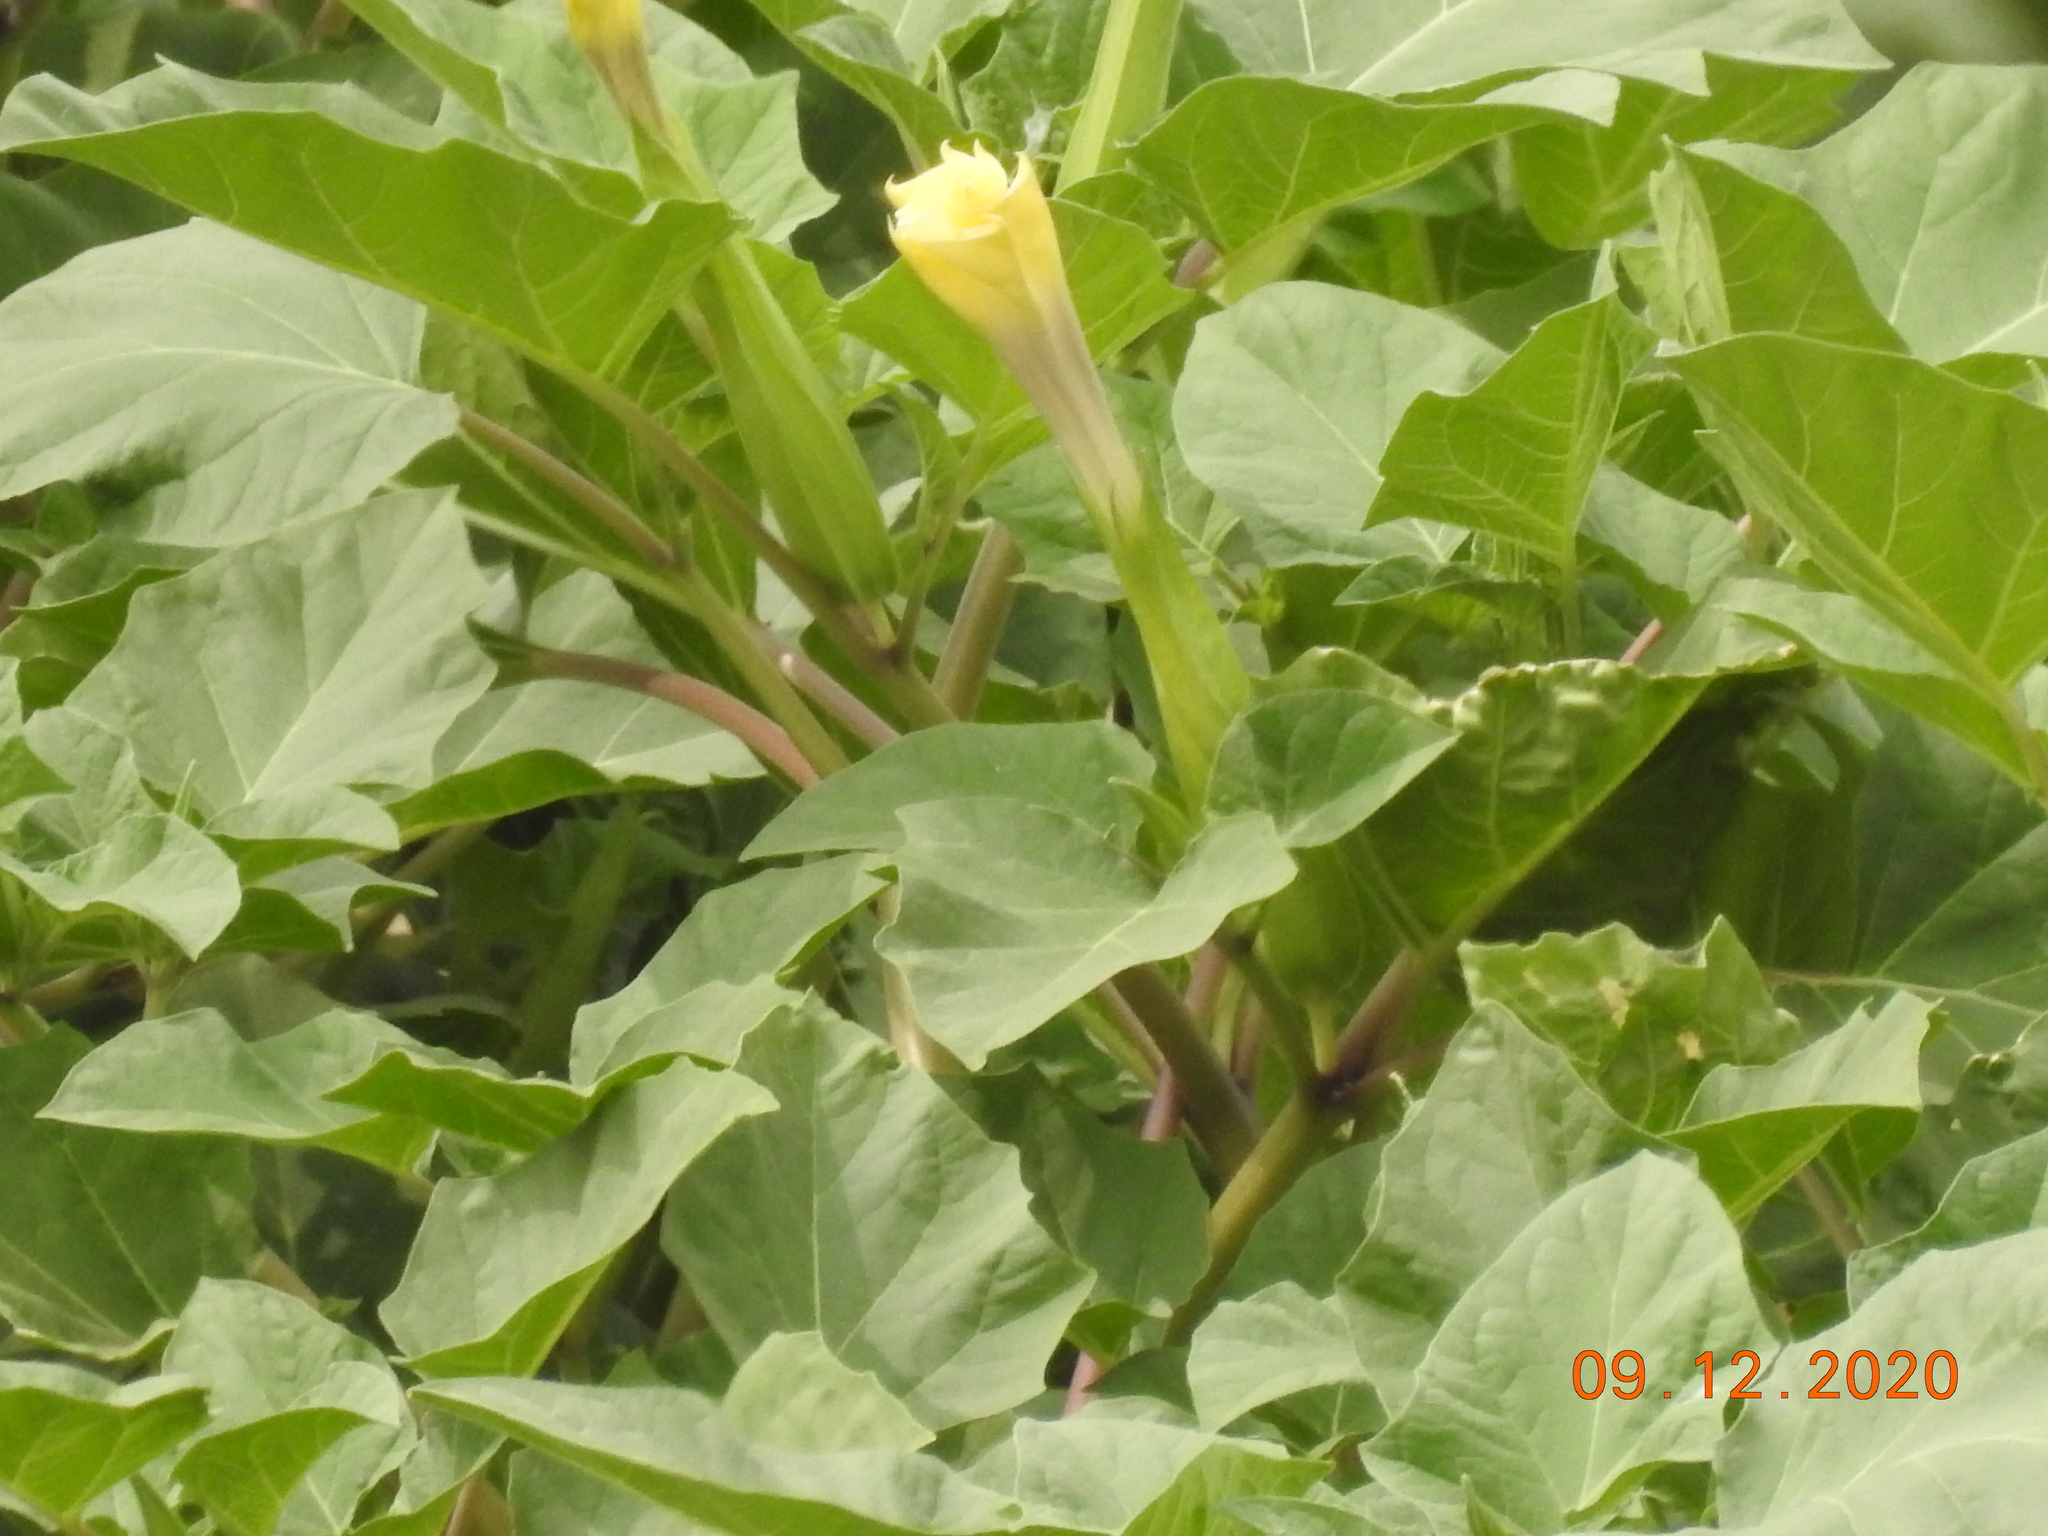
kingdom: Plantae
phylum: Tracheophyta
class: Magnoliopsida
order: Solanales
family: Solanaceae
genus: Datura
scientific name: Datura discolor
